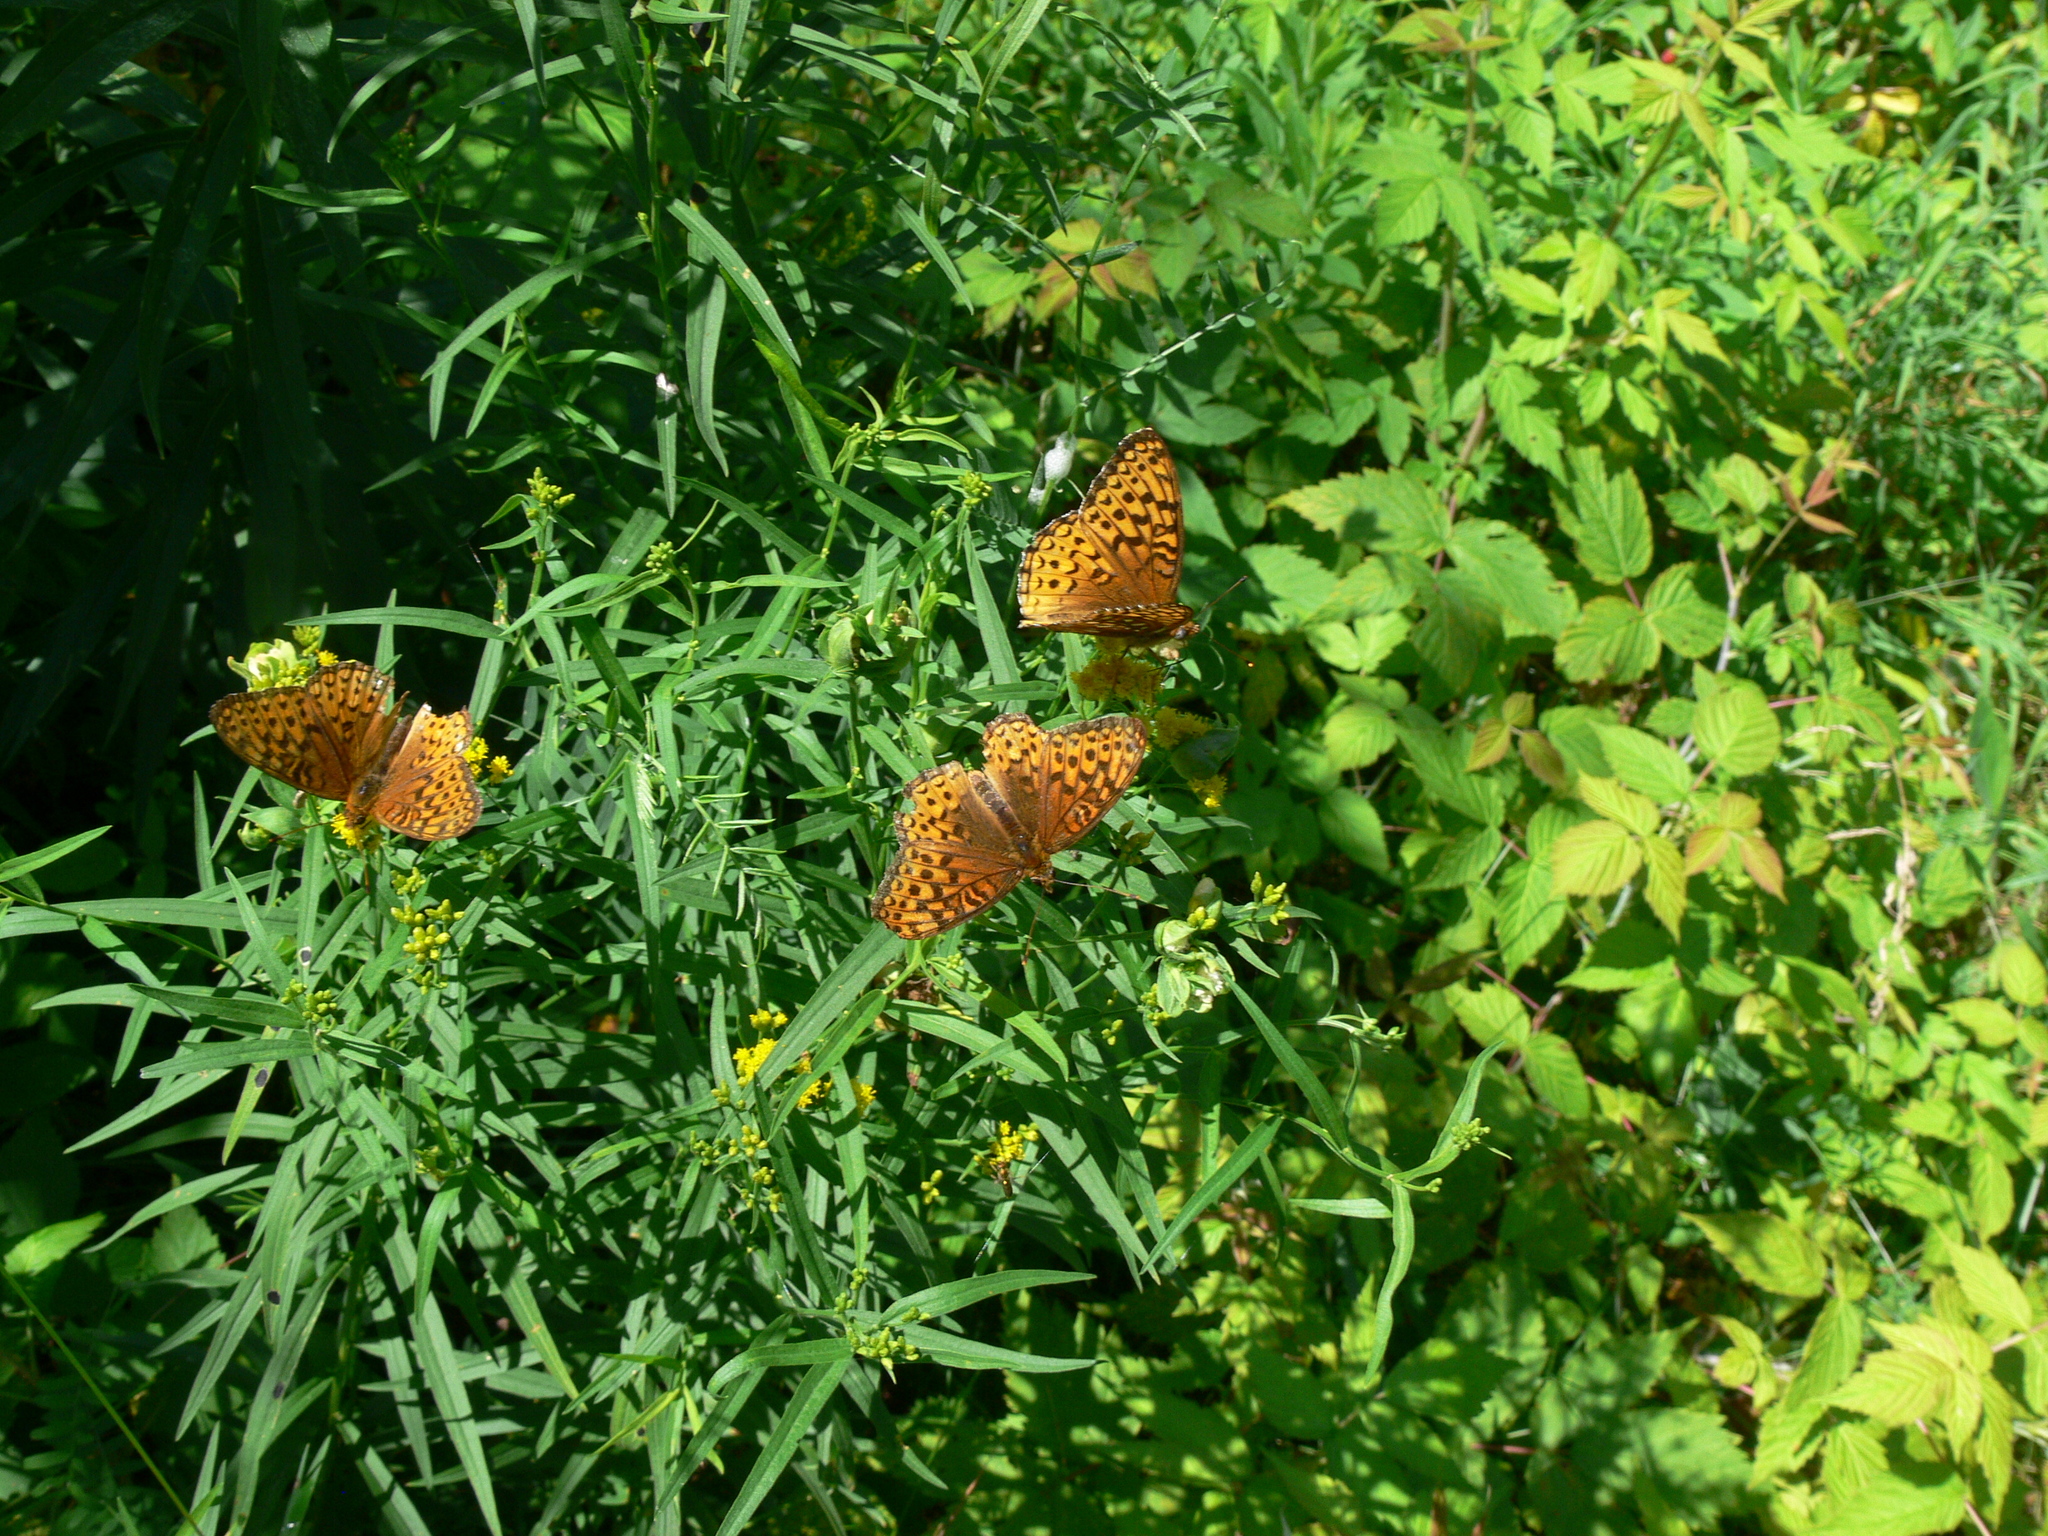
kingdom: Animalia
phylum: Arthropoda
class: Insecta
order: Lepidoptera
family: Nymphalidae
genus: Speyeria
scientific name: Speyeria atlantis
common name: Atlantis fritillary
